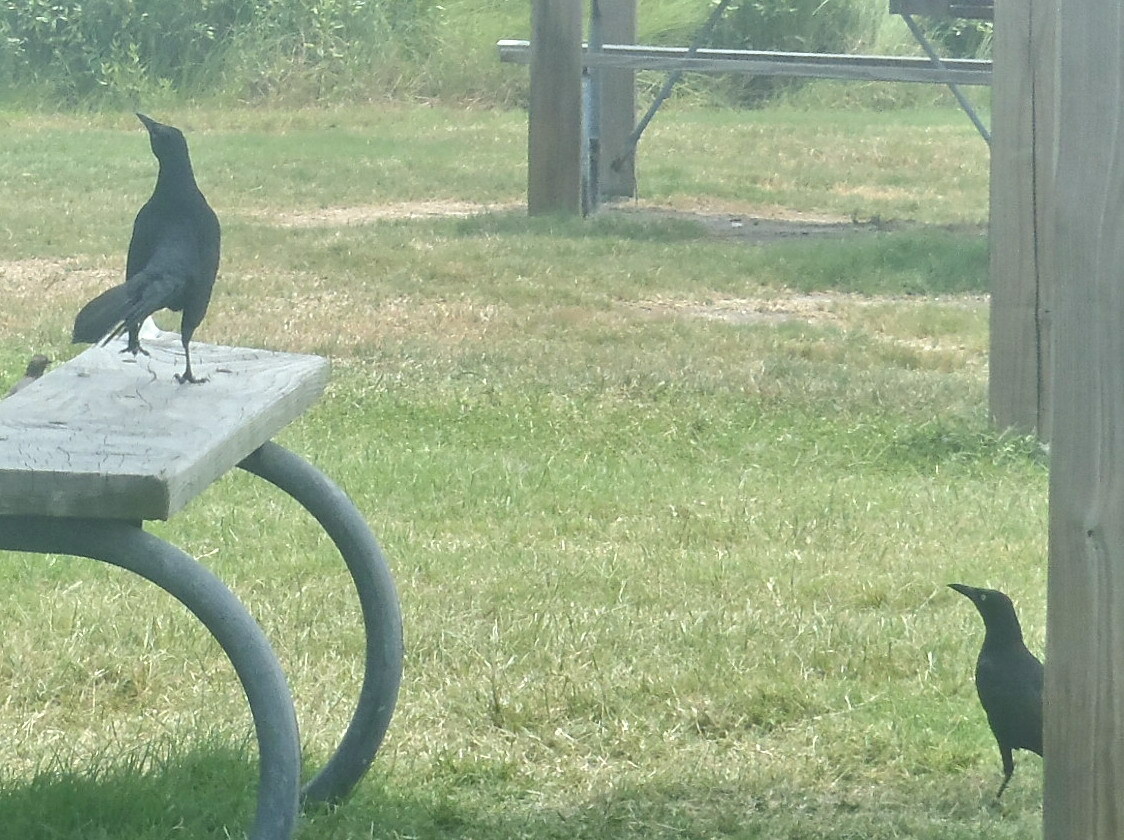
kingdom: Animalia
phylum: Chordata
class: Aves
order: Passeriformes
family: Icteridae
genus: Quiscalus
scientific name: Quiscalus mexicanus
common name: Great-tailed grackle
